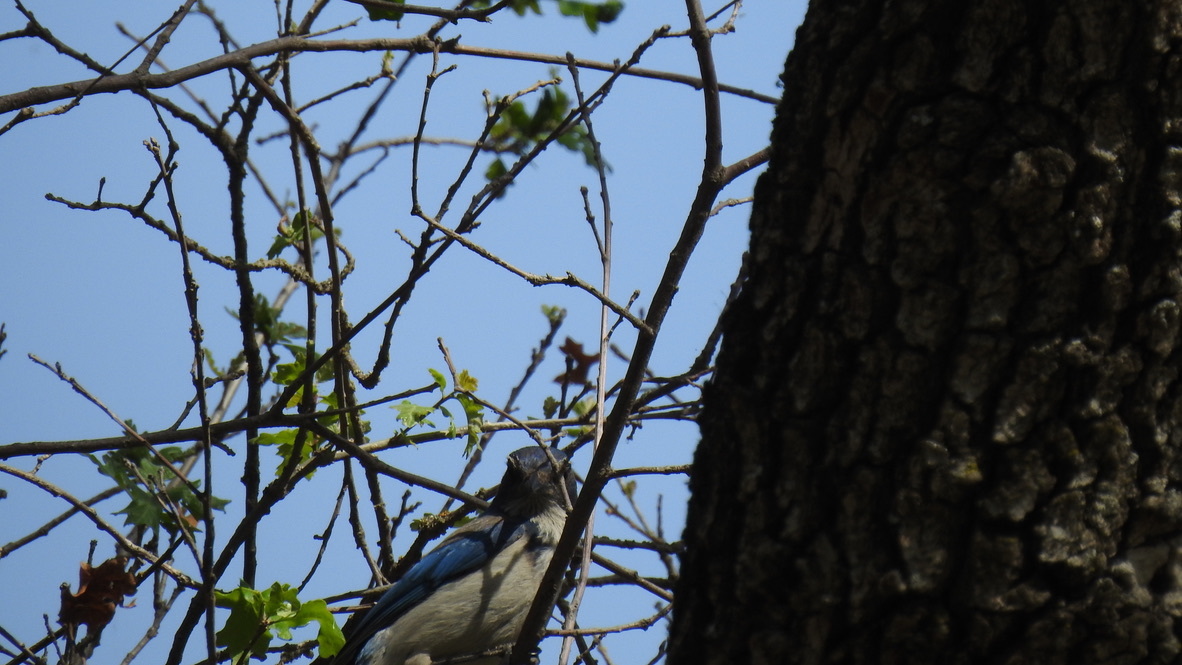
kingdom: Animalia
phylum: Chordata
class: Aves
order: Passeriformes
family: Corvidae
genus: Aphelocoma
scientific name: Aphelocoma californica
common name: California scrub-jay
